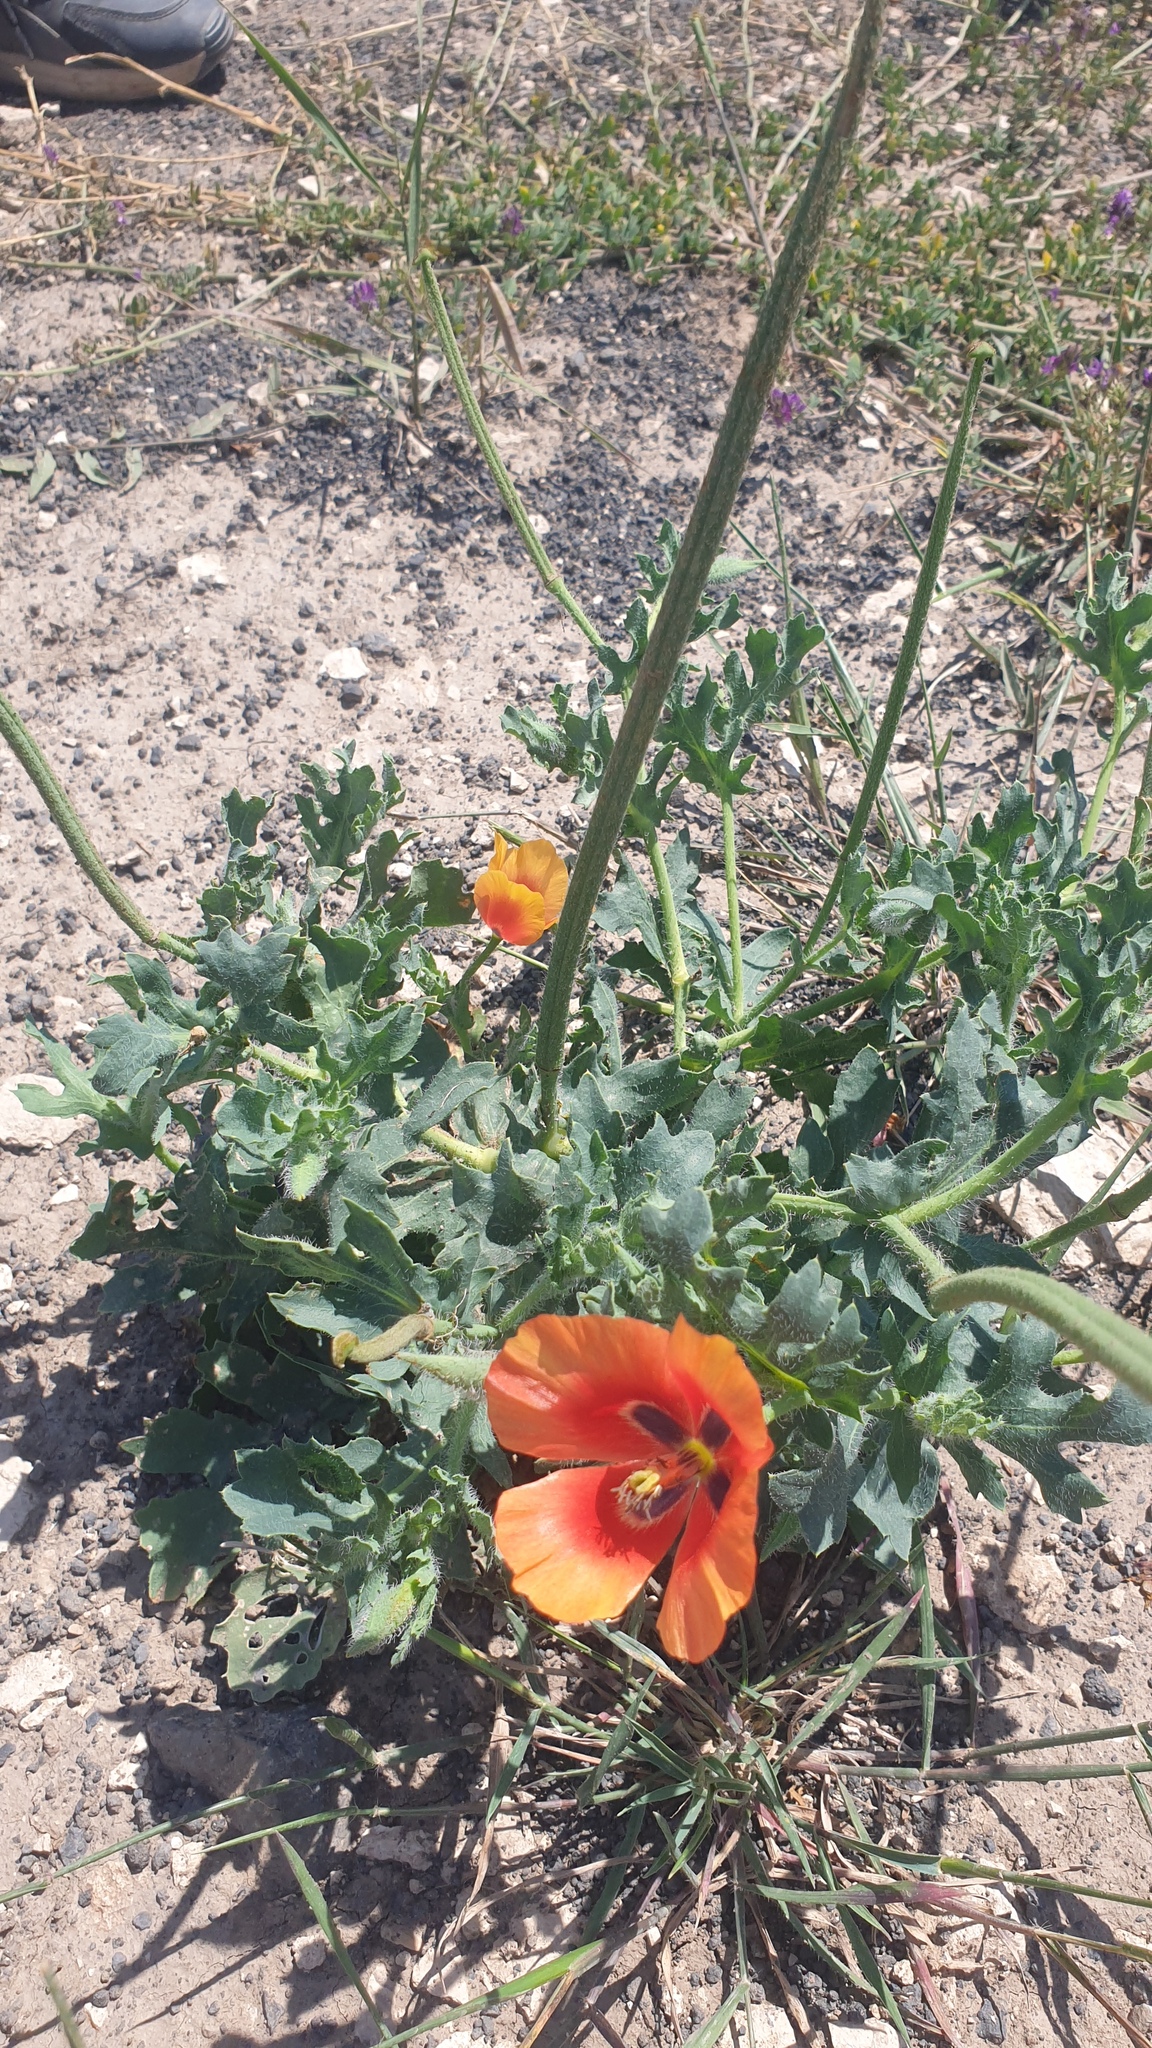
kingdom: Plantae
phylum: Tracheophyta
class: Magnoliopsida
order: Ranunculales
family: Papaveraceae
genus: Glaucium
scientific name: Glaucium
